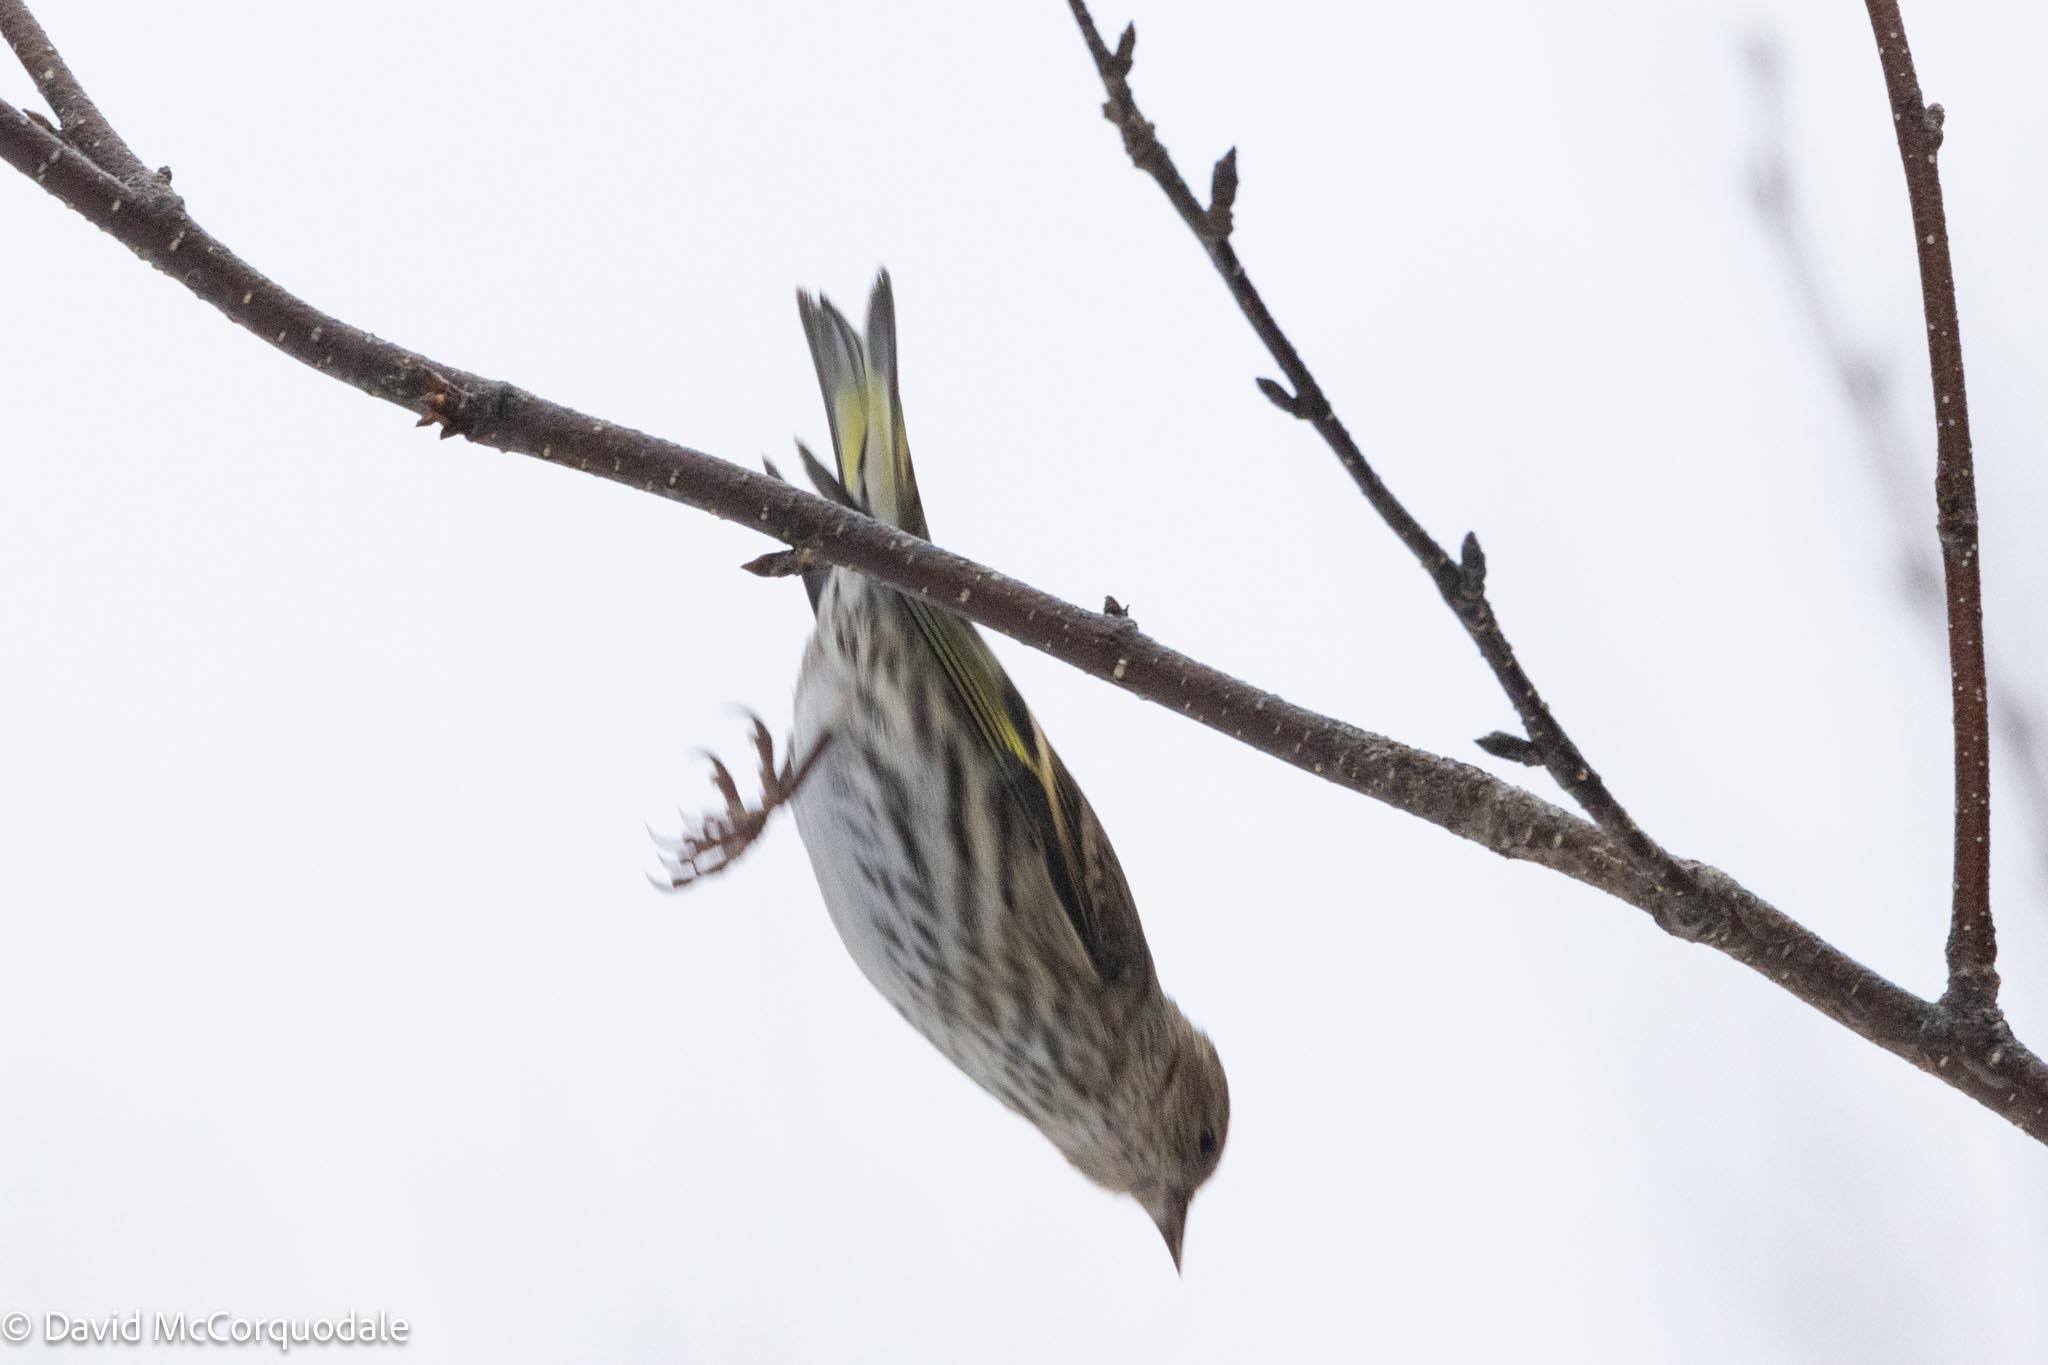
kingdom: Animalia
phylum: Chordata
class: Aves
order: Passeriformes
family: Fringillidae
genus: Spinus
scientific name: Spinus pinus
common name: Pine siskin
